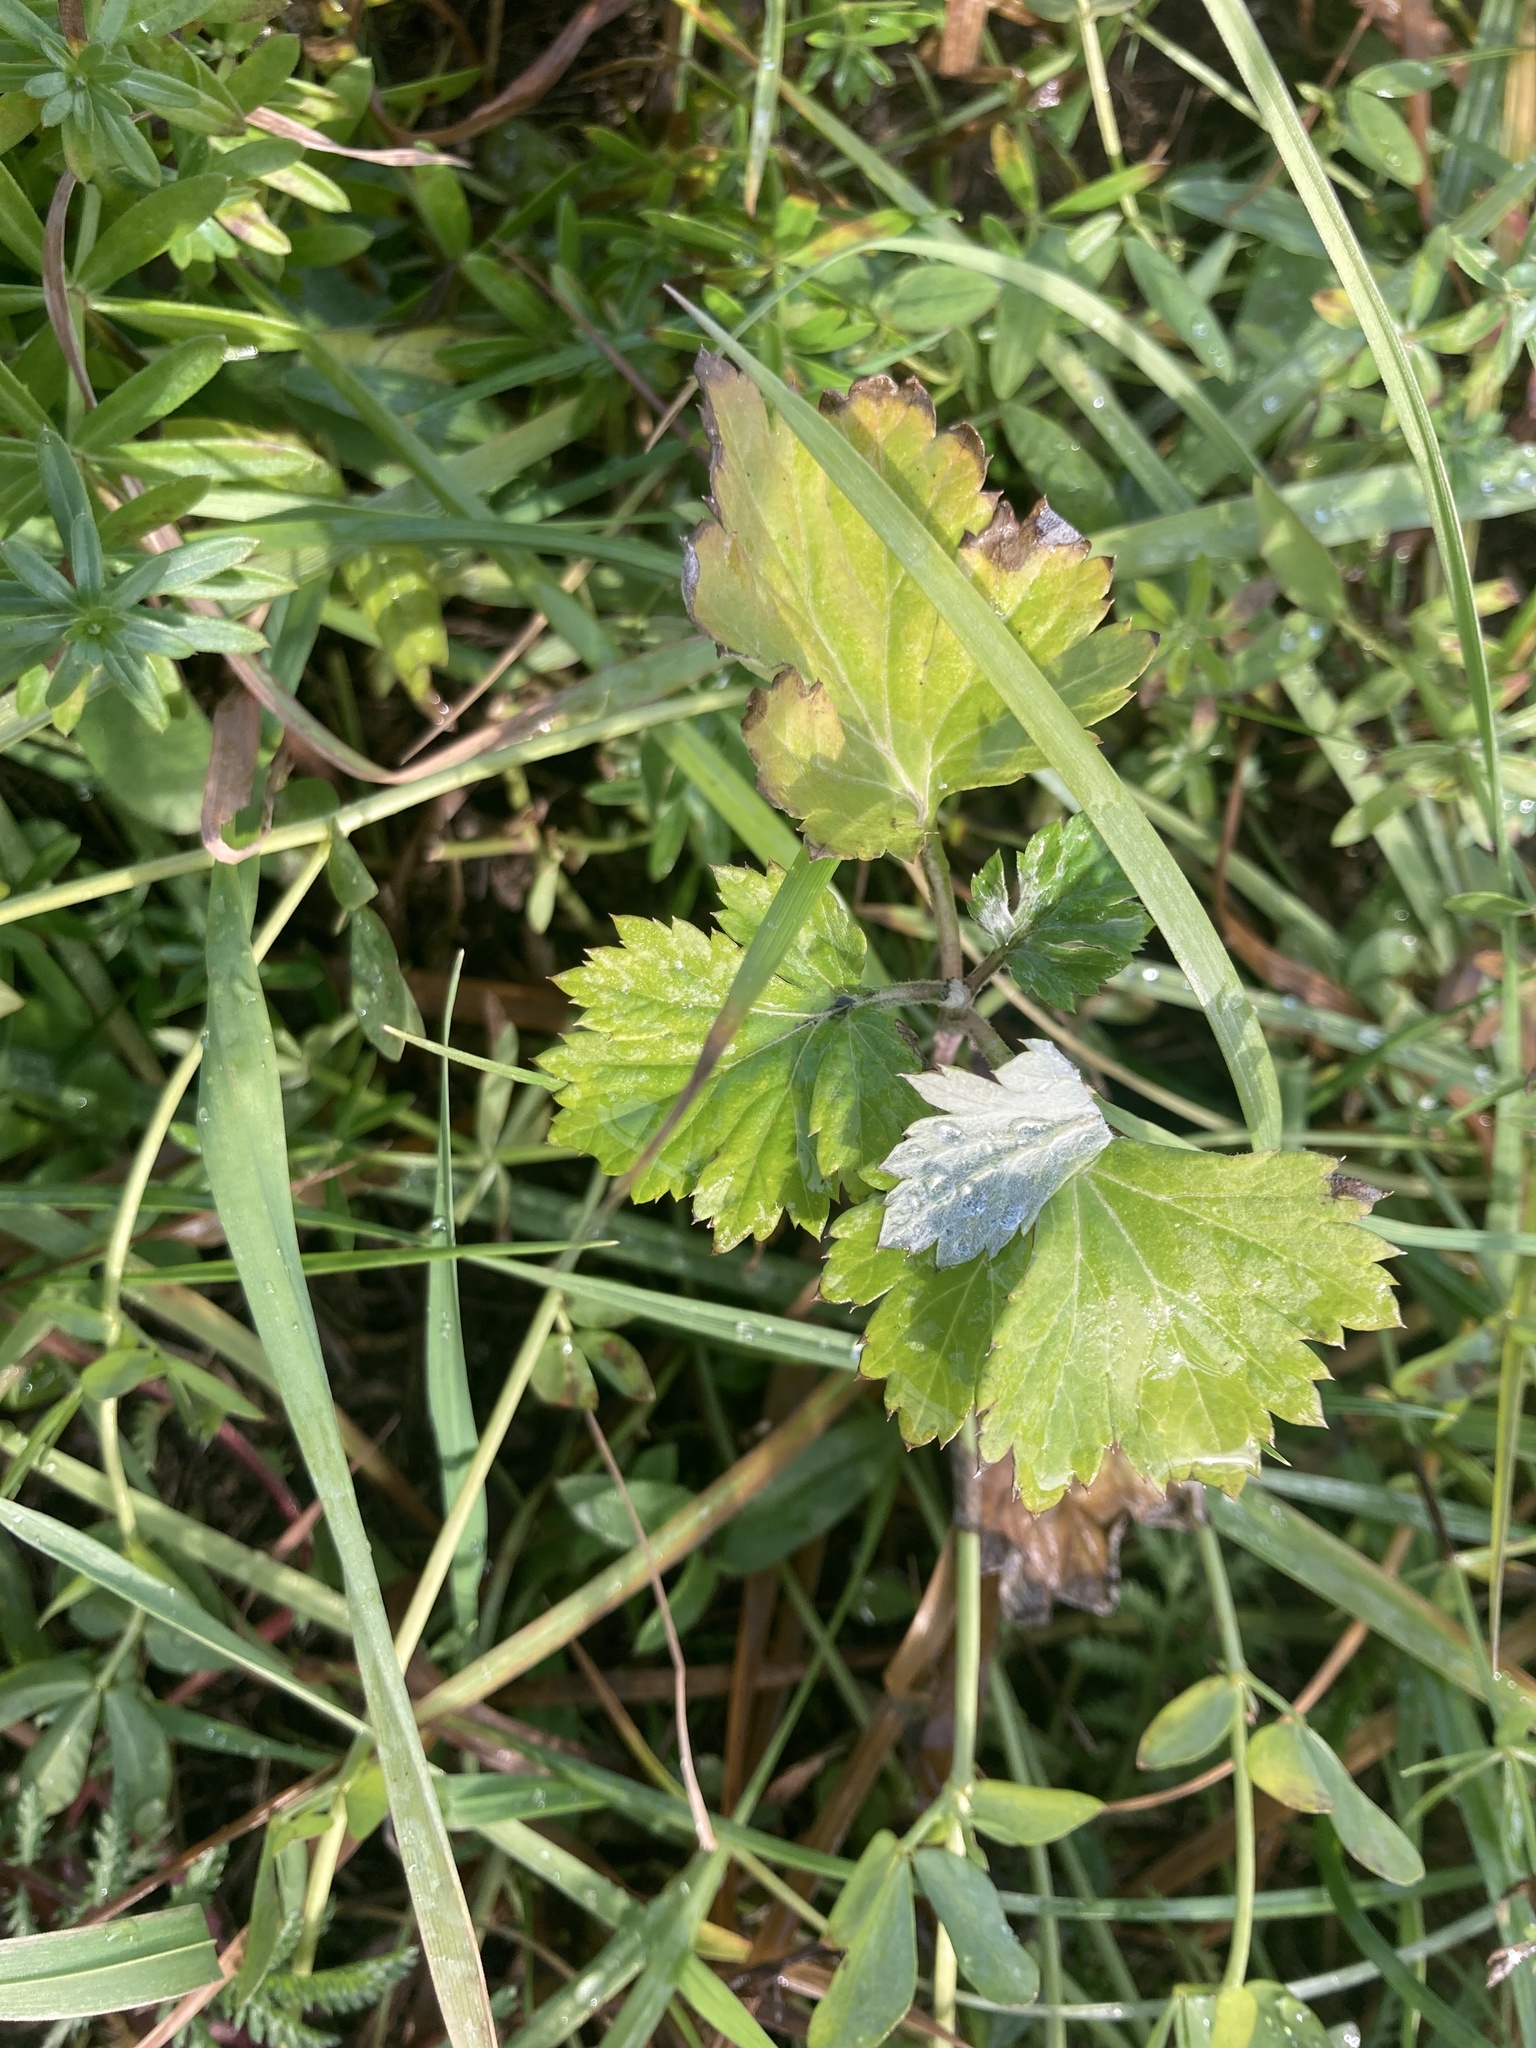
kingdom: Plantae
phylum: Tracheophyta
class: Magnoliopsida
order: Asterales
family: Asteraceae
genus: Artemisia
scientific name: Artemisia vulgaris
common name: Mugwort
